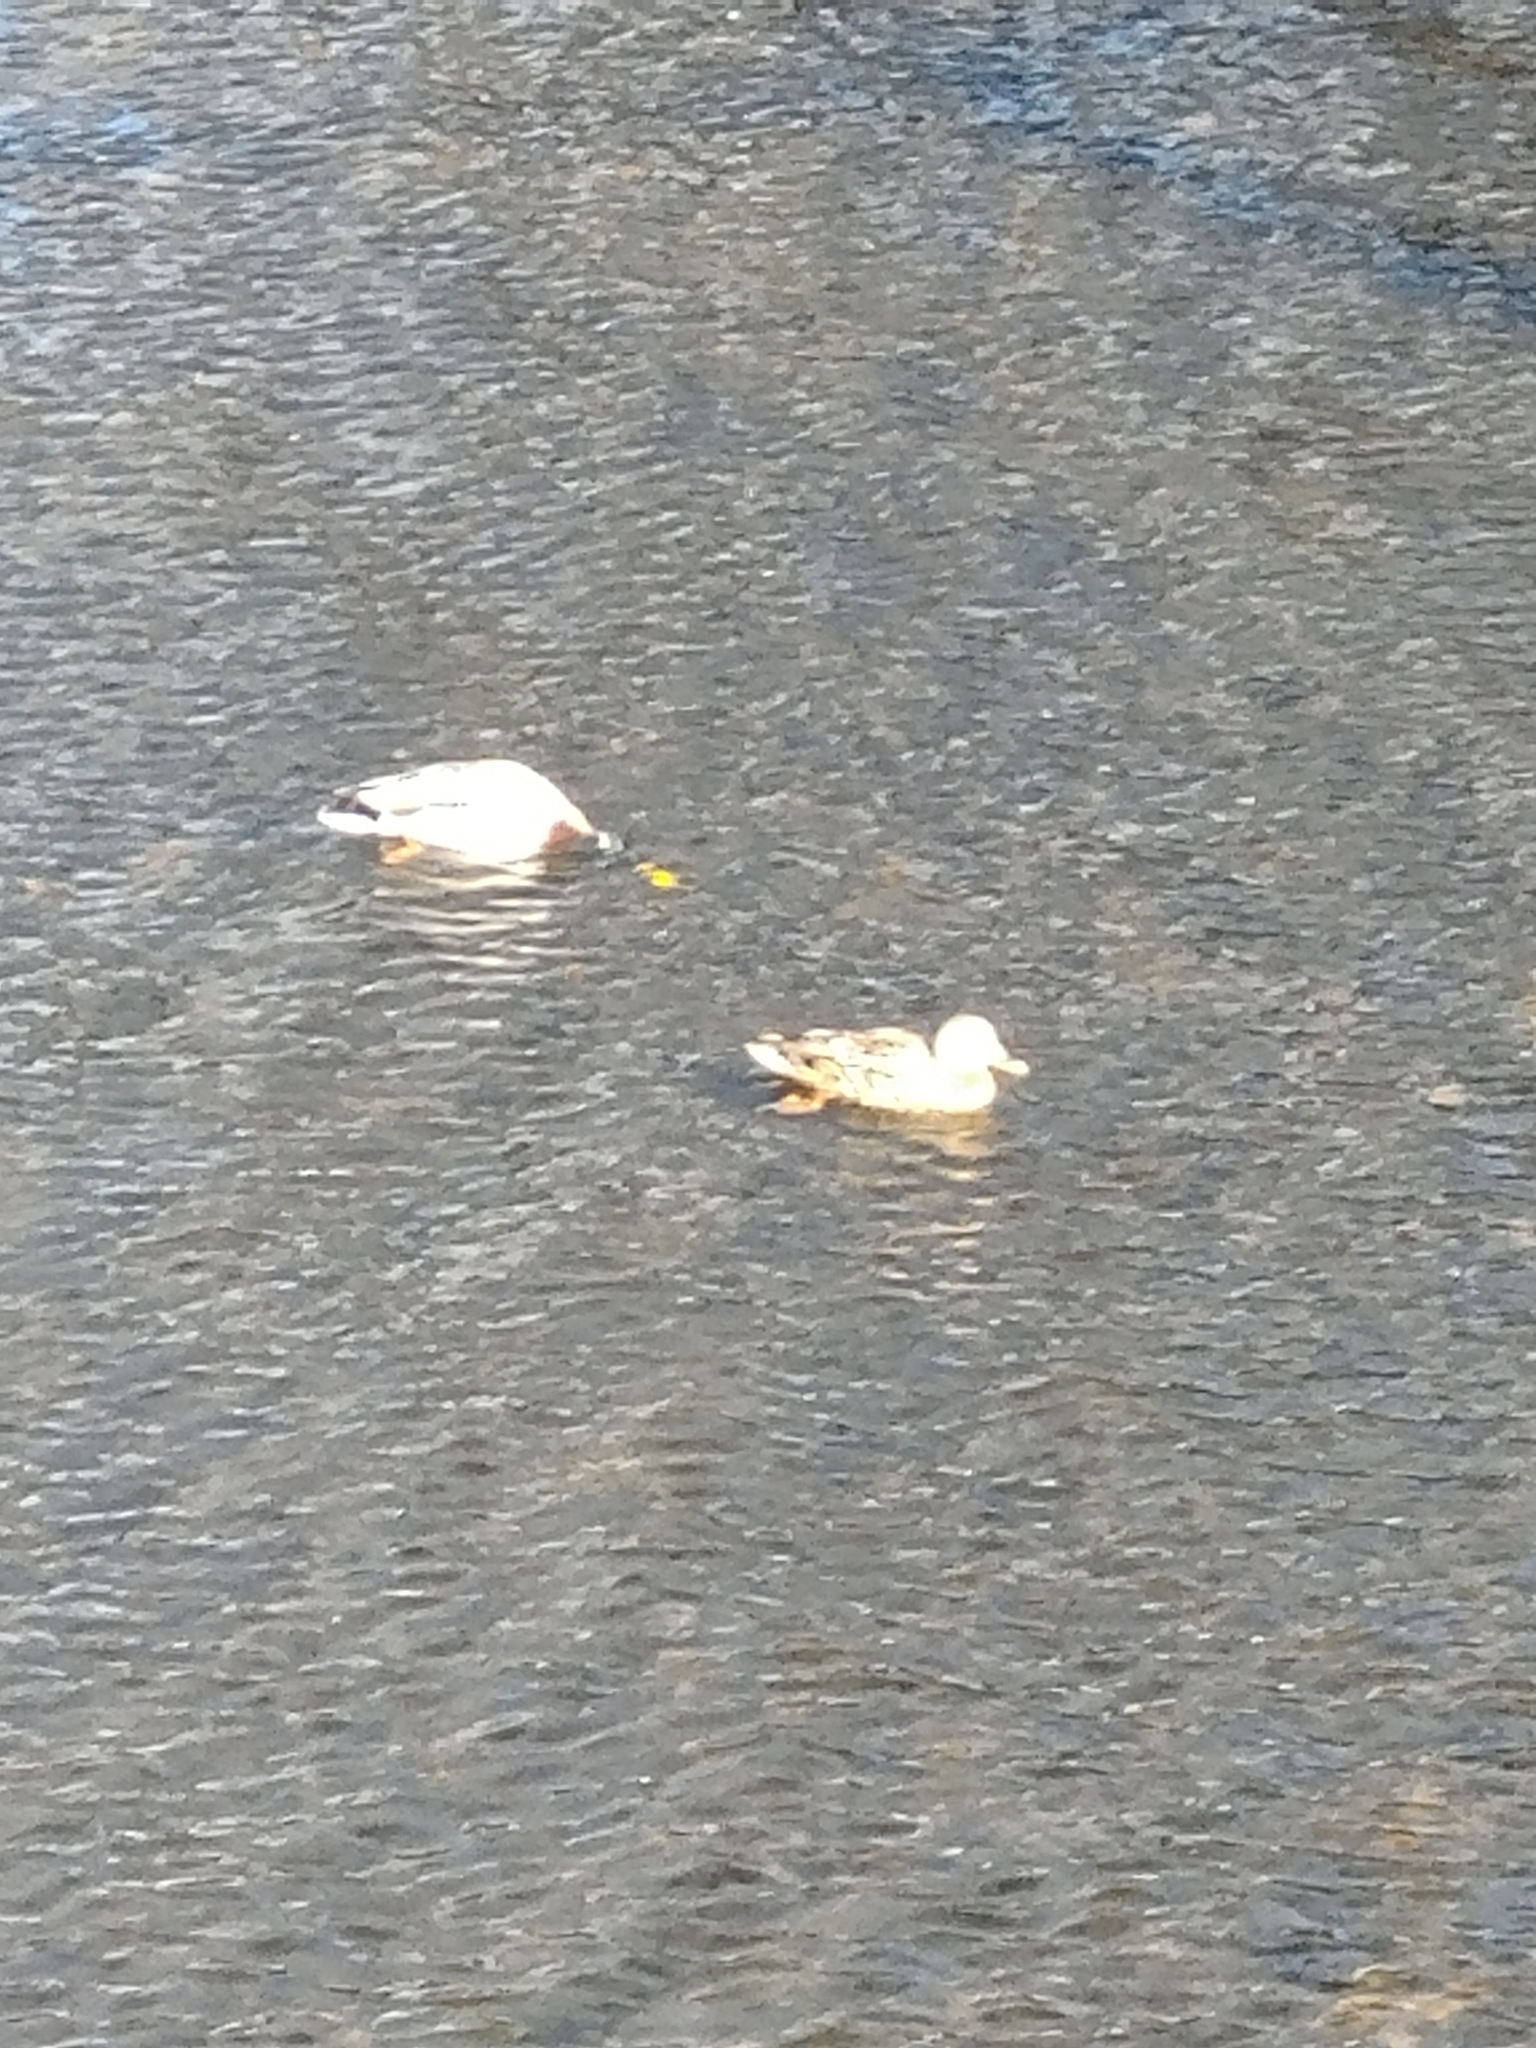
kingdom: Animalia
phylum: Chordata
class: Aves
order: Anseriformes
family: Anatidae
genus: Anas
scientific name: Anas platyrhynchos
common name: Mallard
